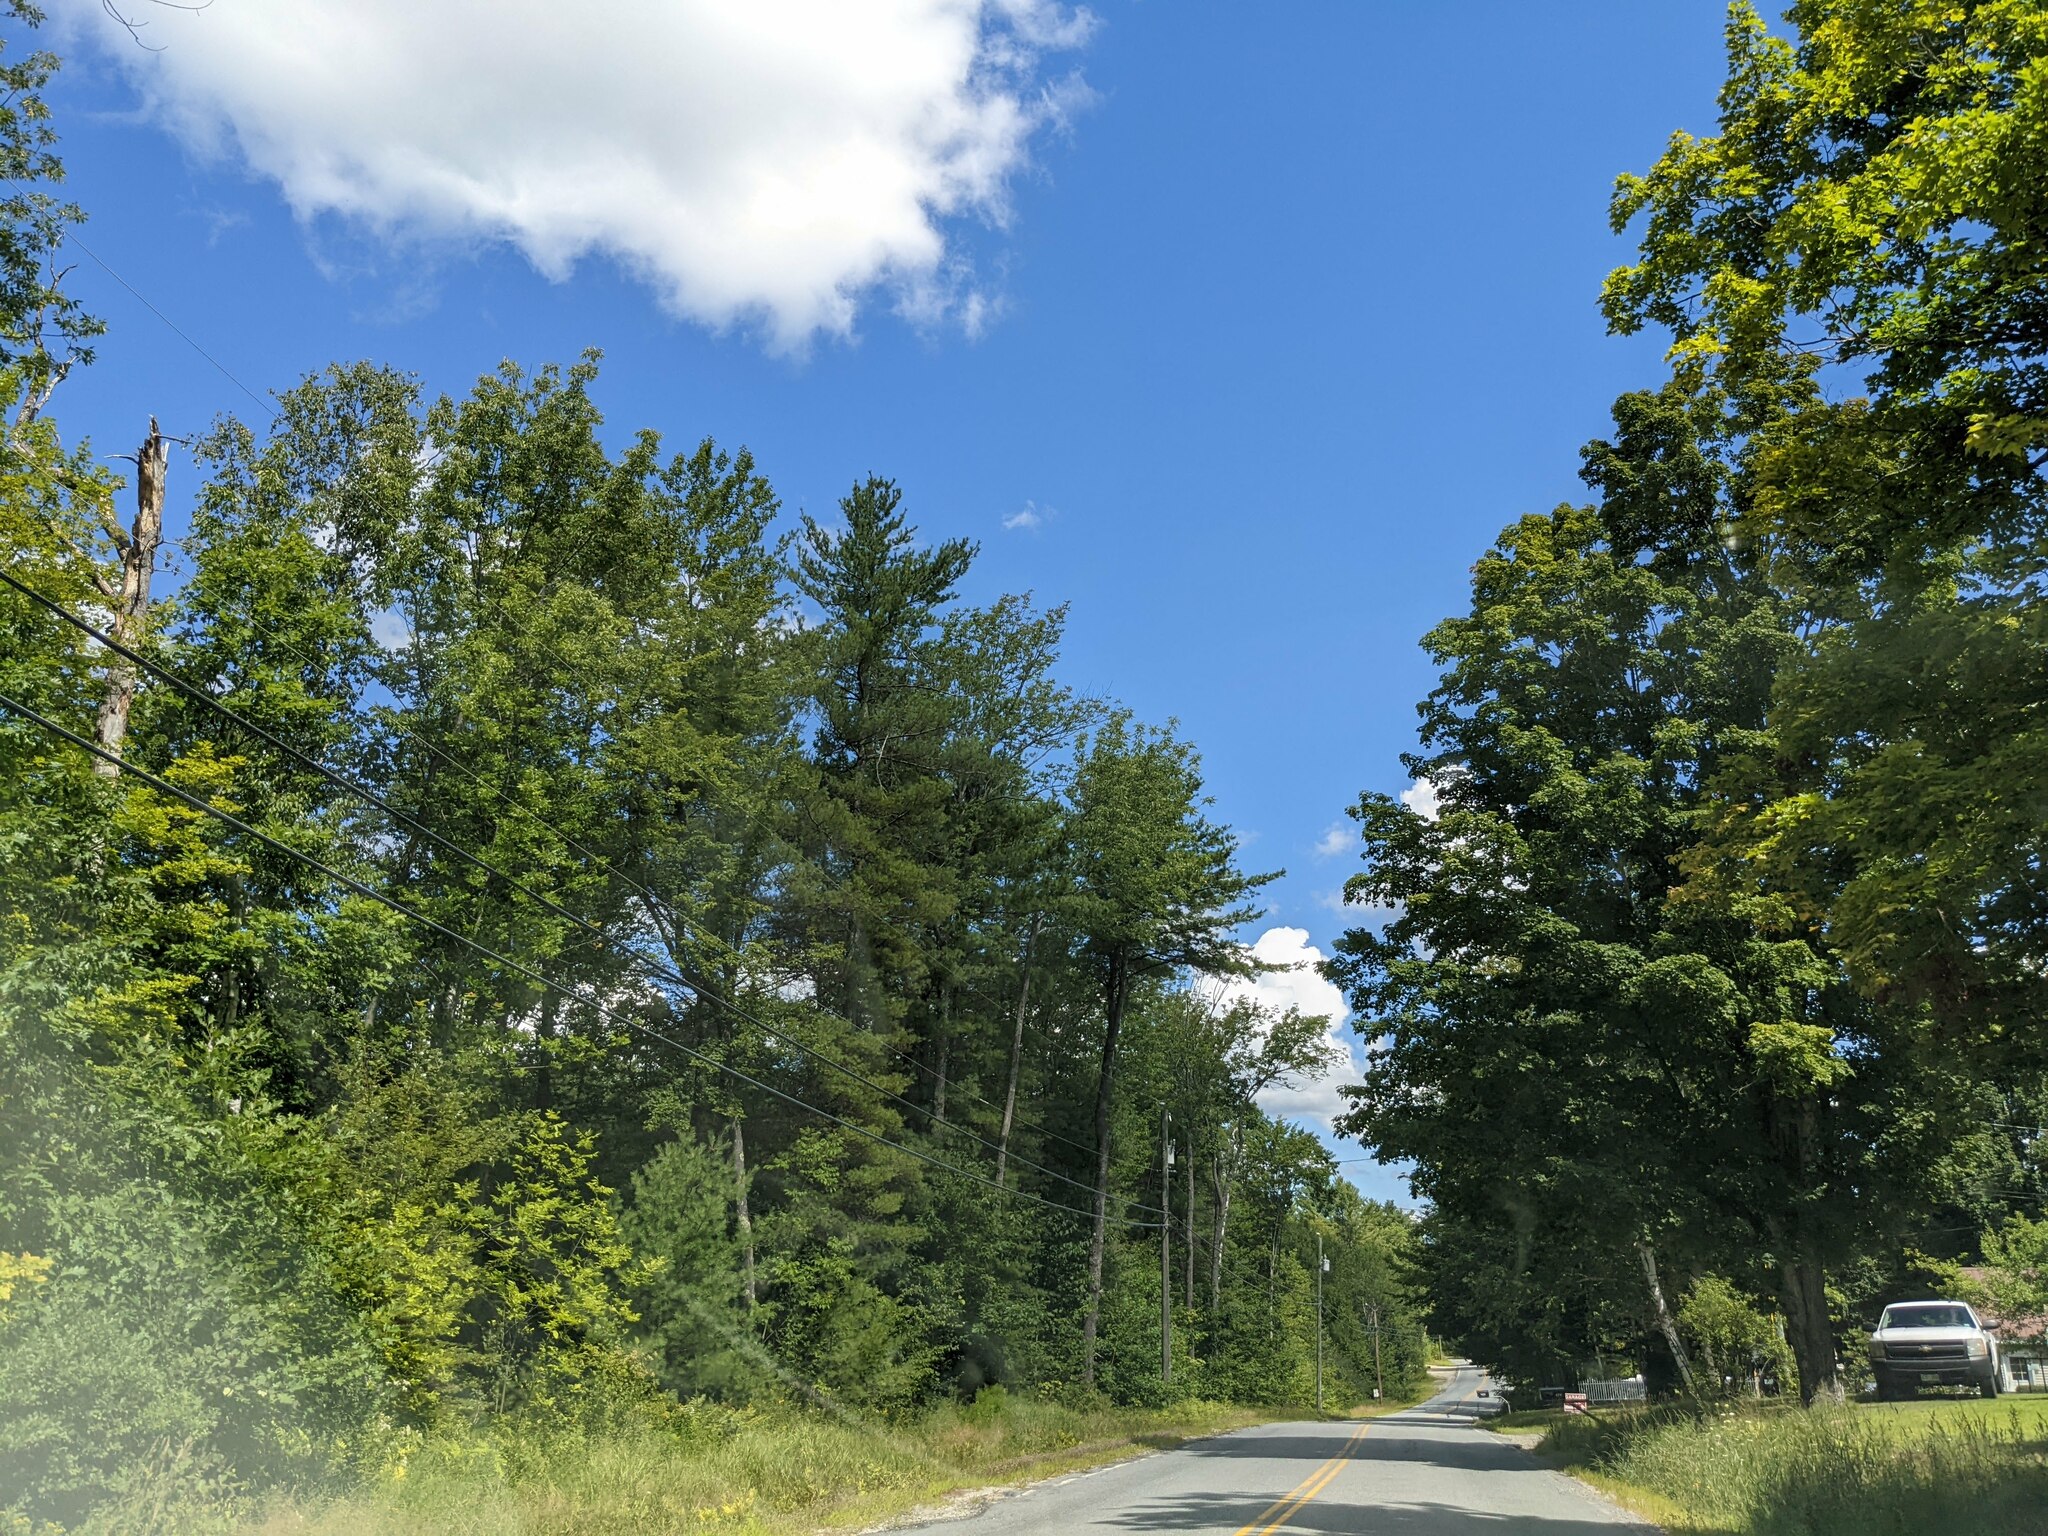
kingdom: Plantae
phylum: Tracheophyta
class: Pinopsida
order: Pinales
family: Pinaceae
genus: Pinus
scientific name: Pinus strobus
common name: Weymouth pine
